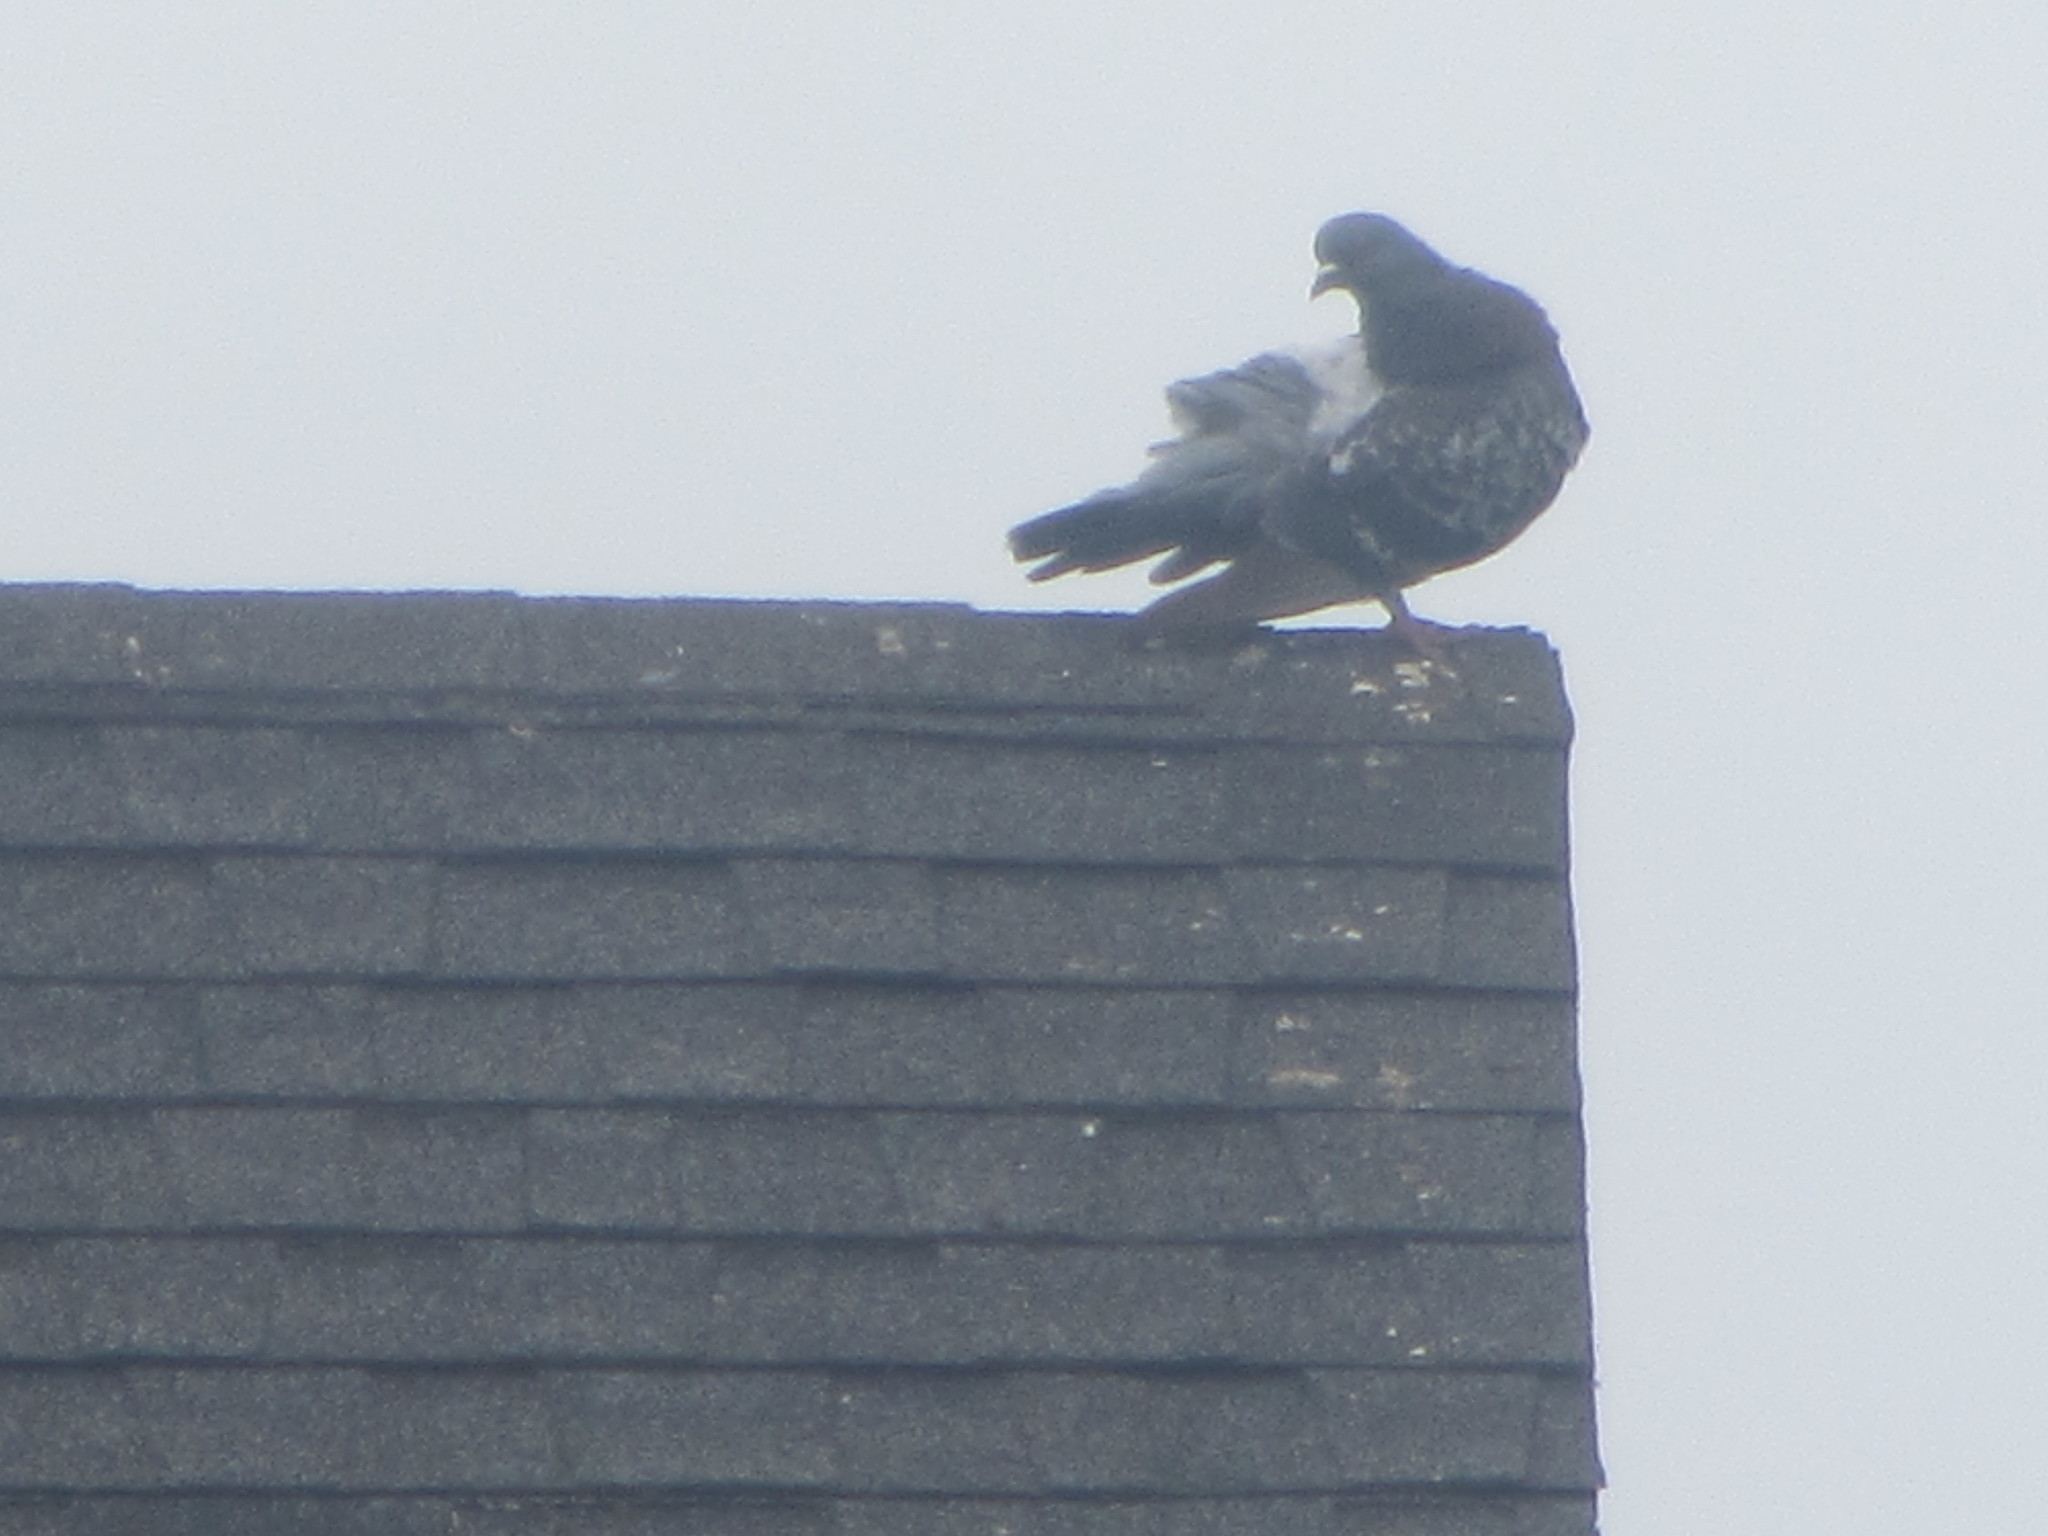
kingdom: Animalia
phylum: Chordata
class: Aves
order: Columbiformes
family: Columbidae
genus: Columba
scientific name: Columba livia
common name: Rock pigeon
